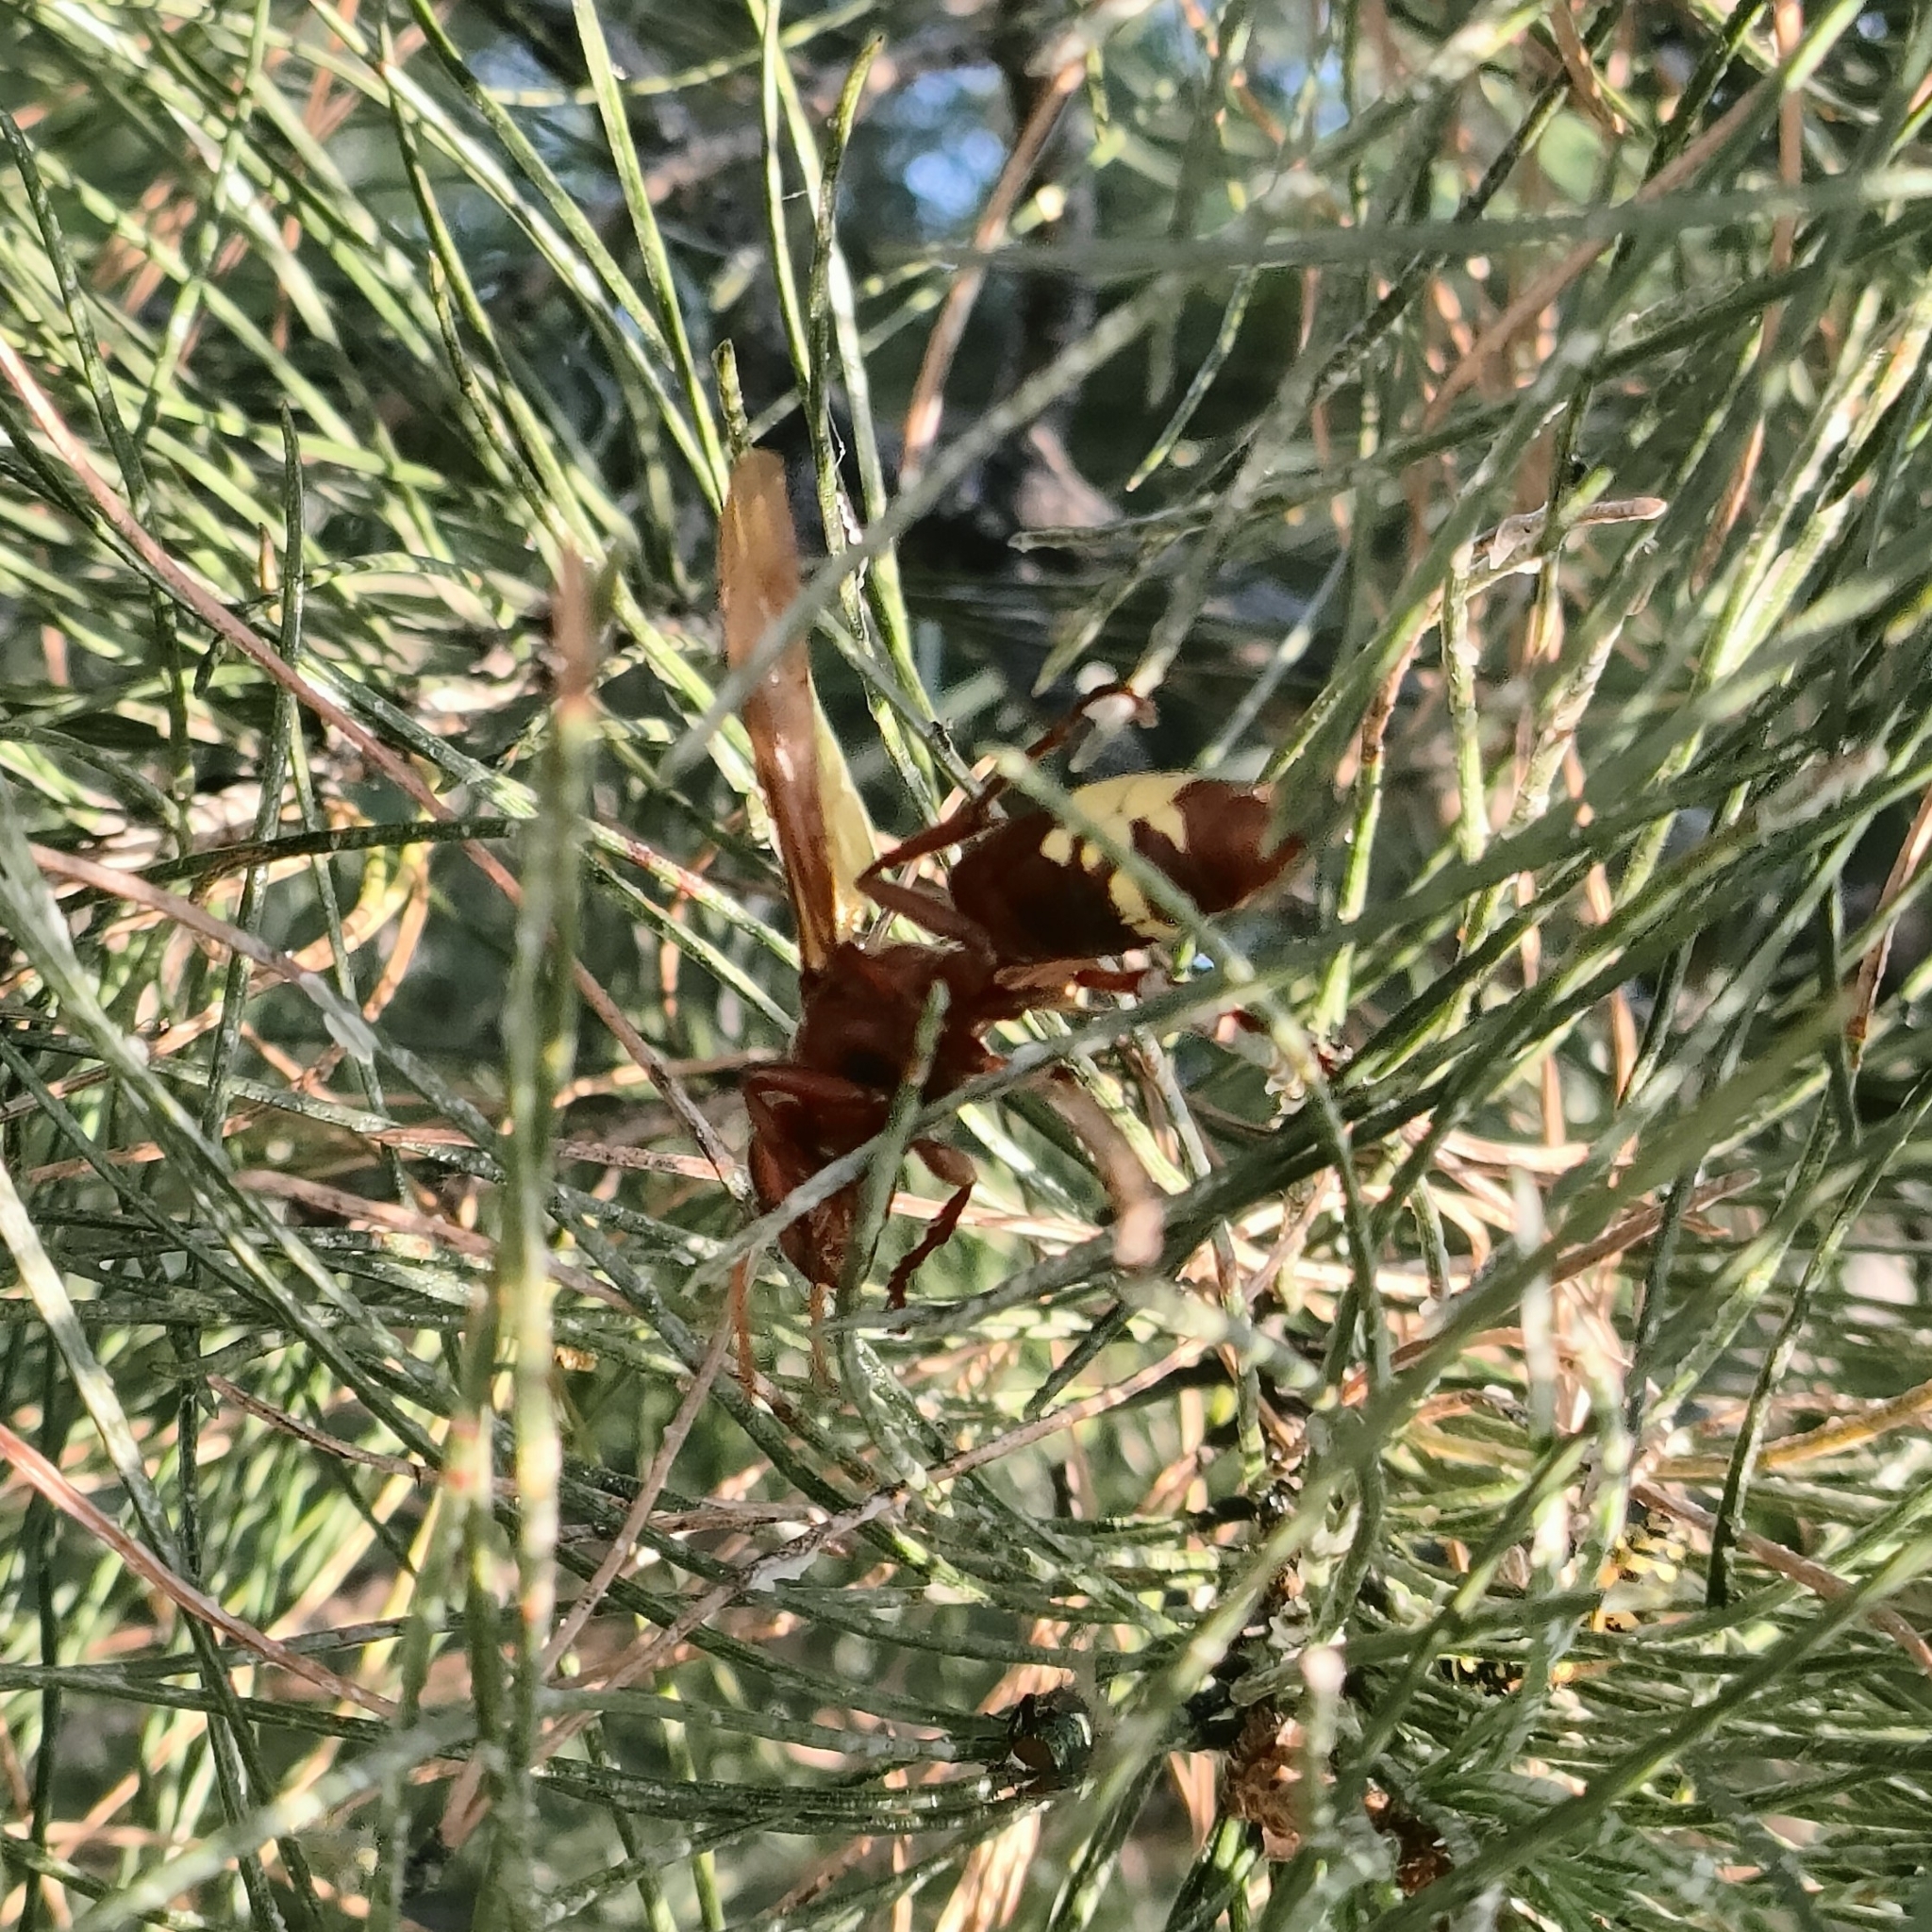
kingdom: Animalia
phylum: Arthropoda
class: Insecta
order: Hymenoptera
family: Vespidae
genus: Vespa
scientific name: Vespa orientalis
